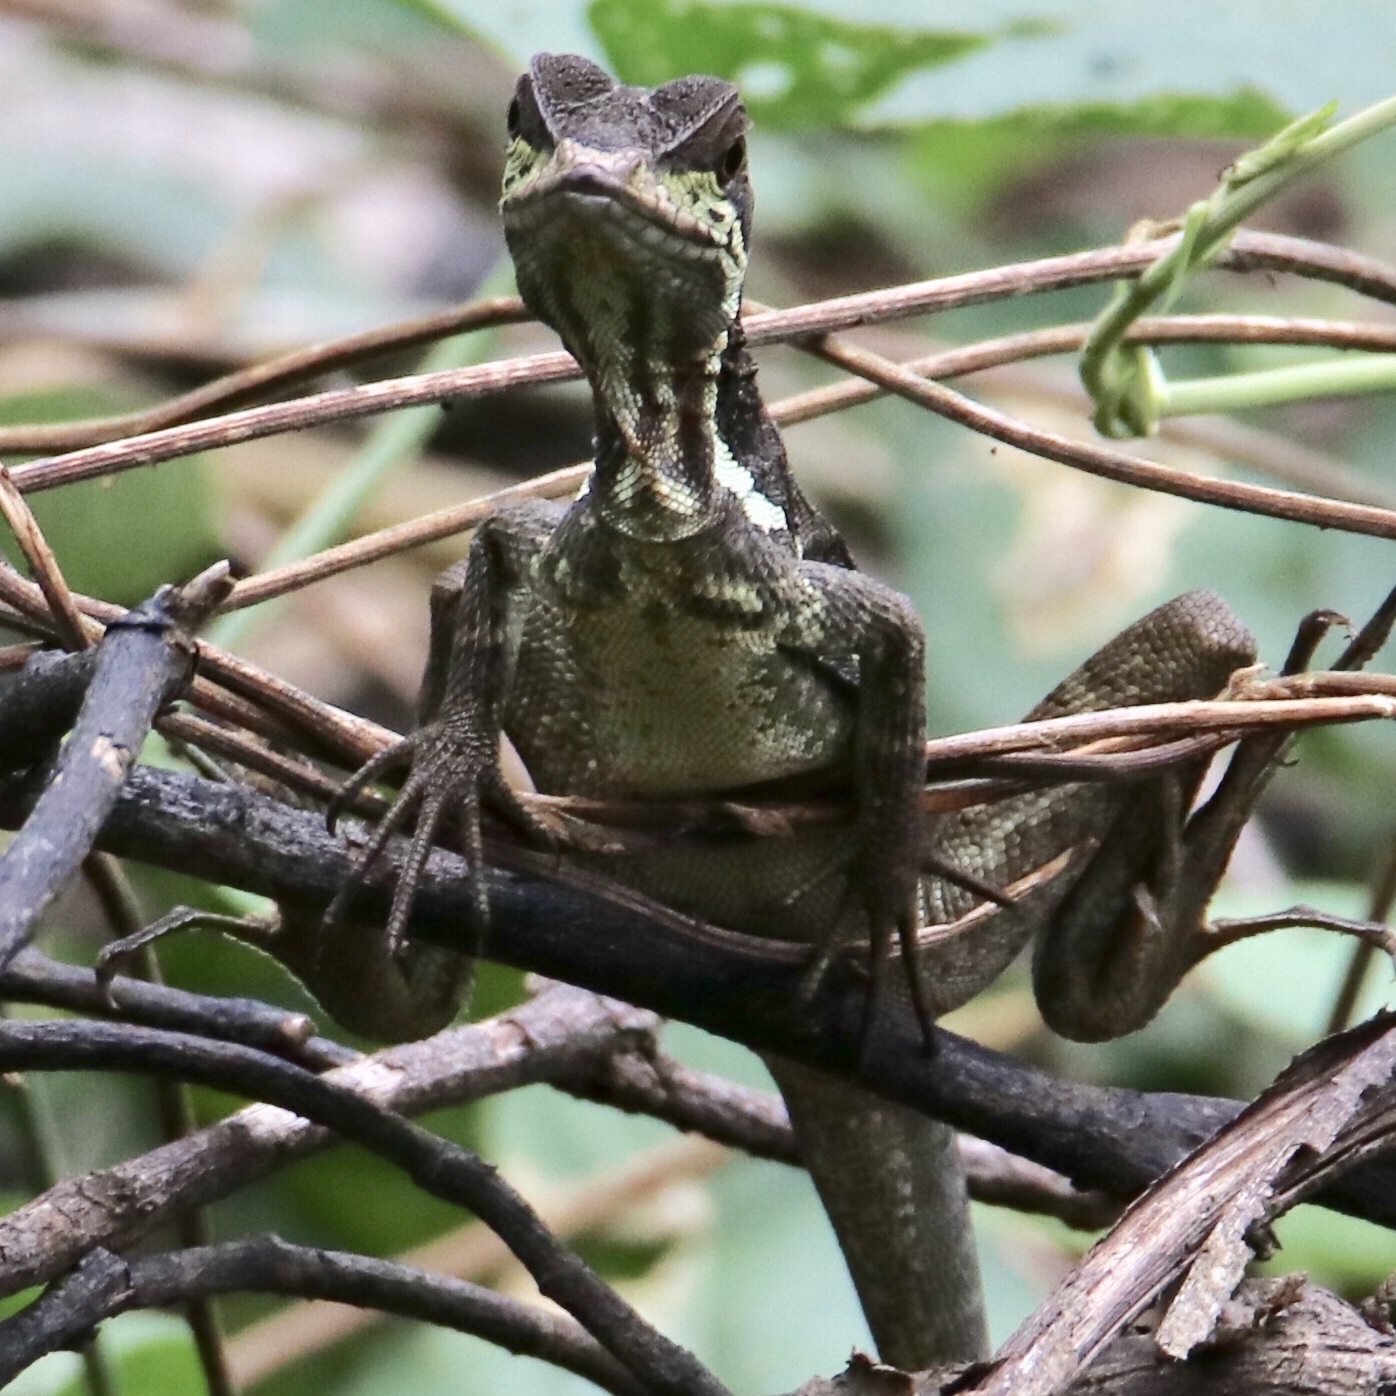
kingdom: Animalia
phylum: Chordata
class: Squamata
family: Corytophanidae
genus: Basiliscus
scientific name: Basiliscus basiliscus
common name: Common basilisk
